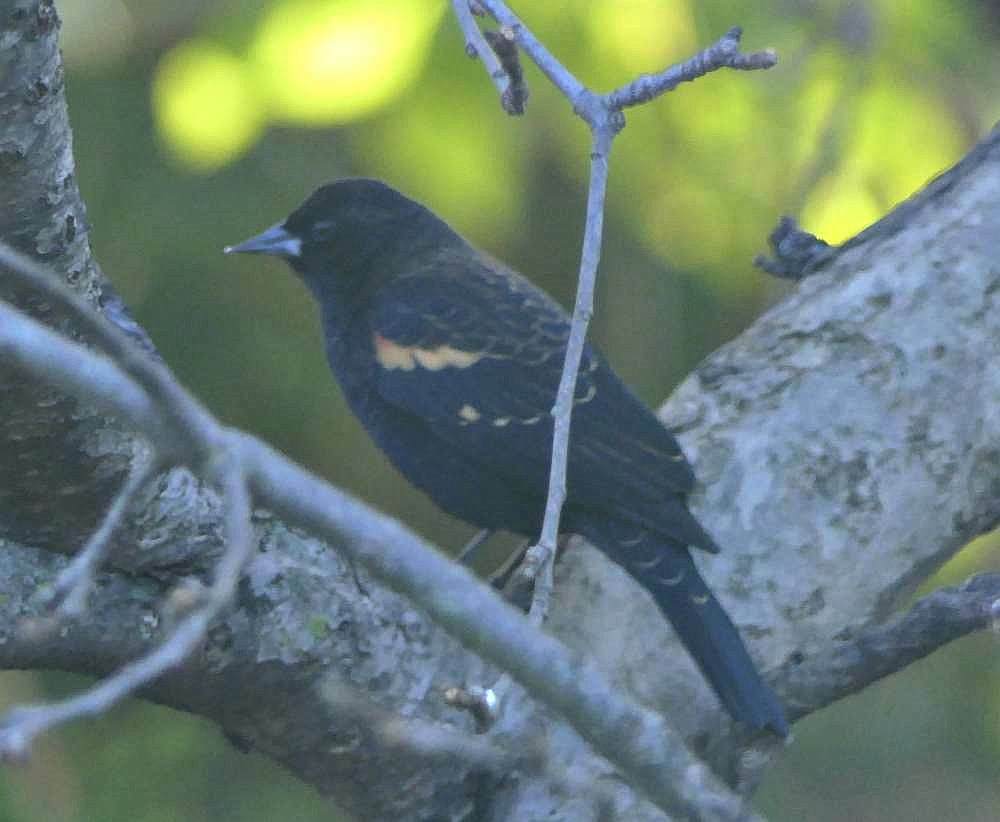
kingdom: Animalia
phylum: Chordata
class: Aves
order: Passeriformes
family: Icteridae
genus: Agelaius
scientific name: Agelaius phoeniceus
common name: Red-winged blackbird
